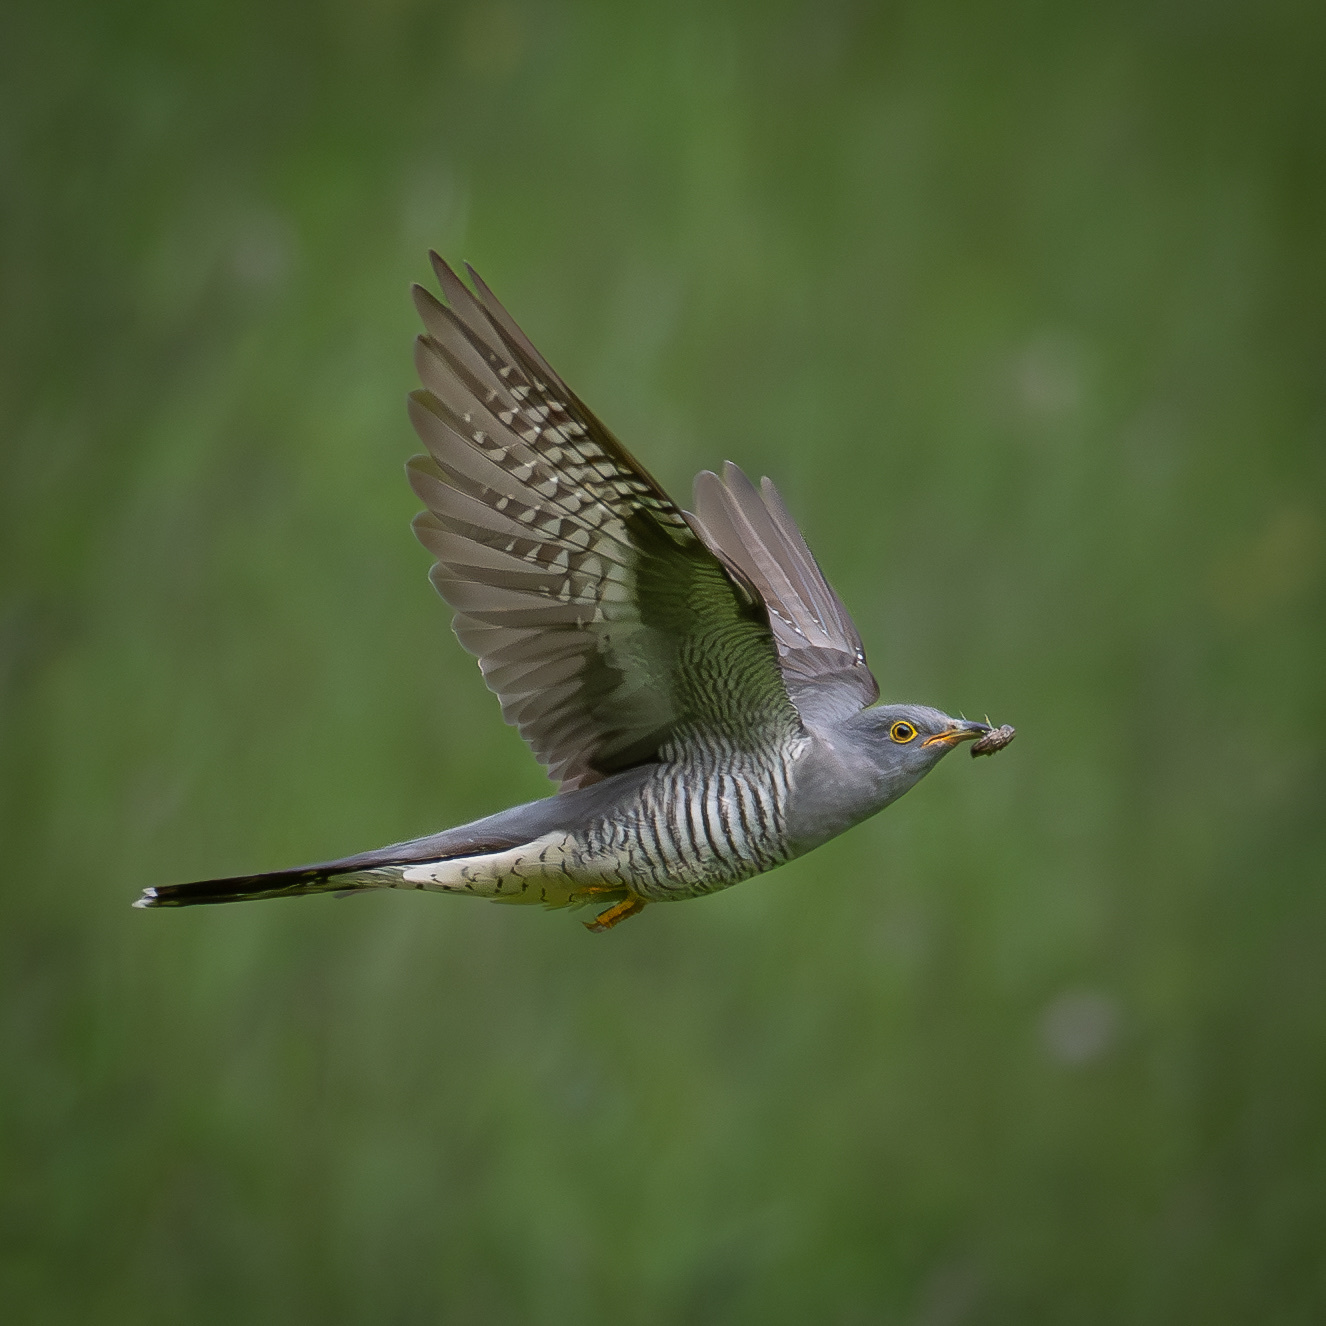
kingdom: Animalia
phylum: Chordata
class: Aves
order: Cuculiformes
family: Cuculidae
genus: Cuculus
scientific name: Cuculus canorus
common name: Common cuckoo
